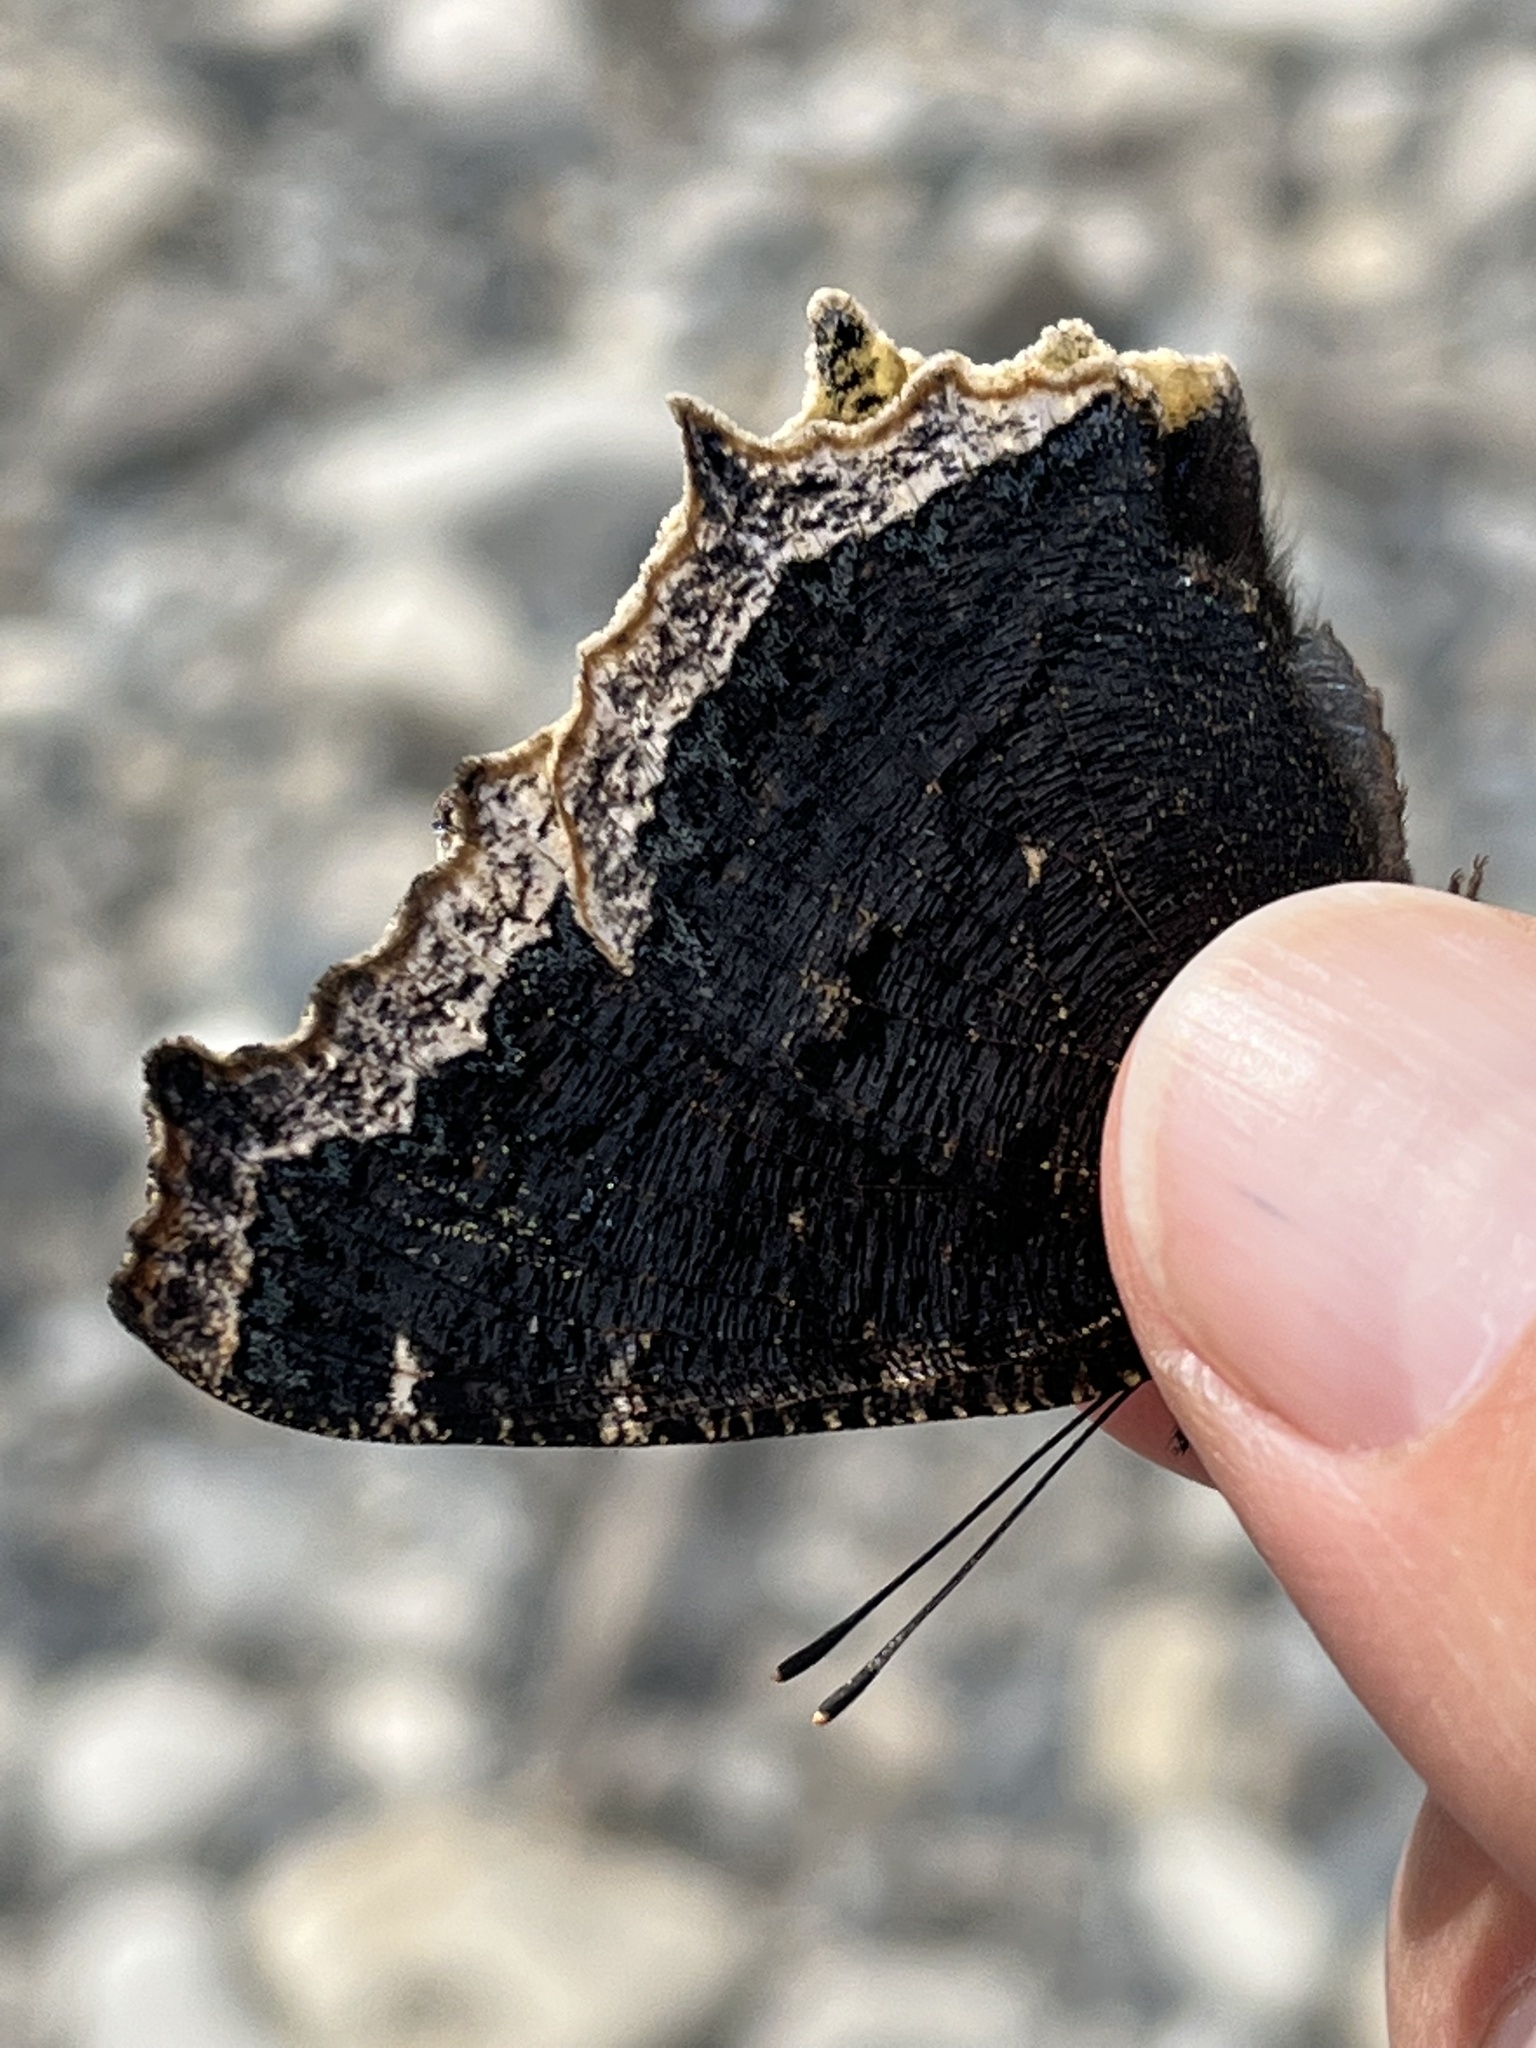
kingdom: Animalia
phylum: Arthropoda
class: Insecta
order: Lepidoptera
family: Nymphalidae
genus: Nymphalis
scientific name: Nymphalis antiopa
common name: Camberwell beauty
